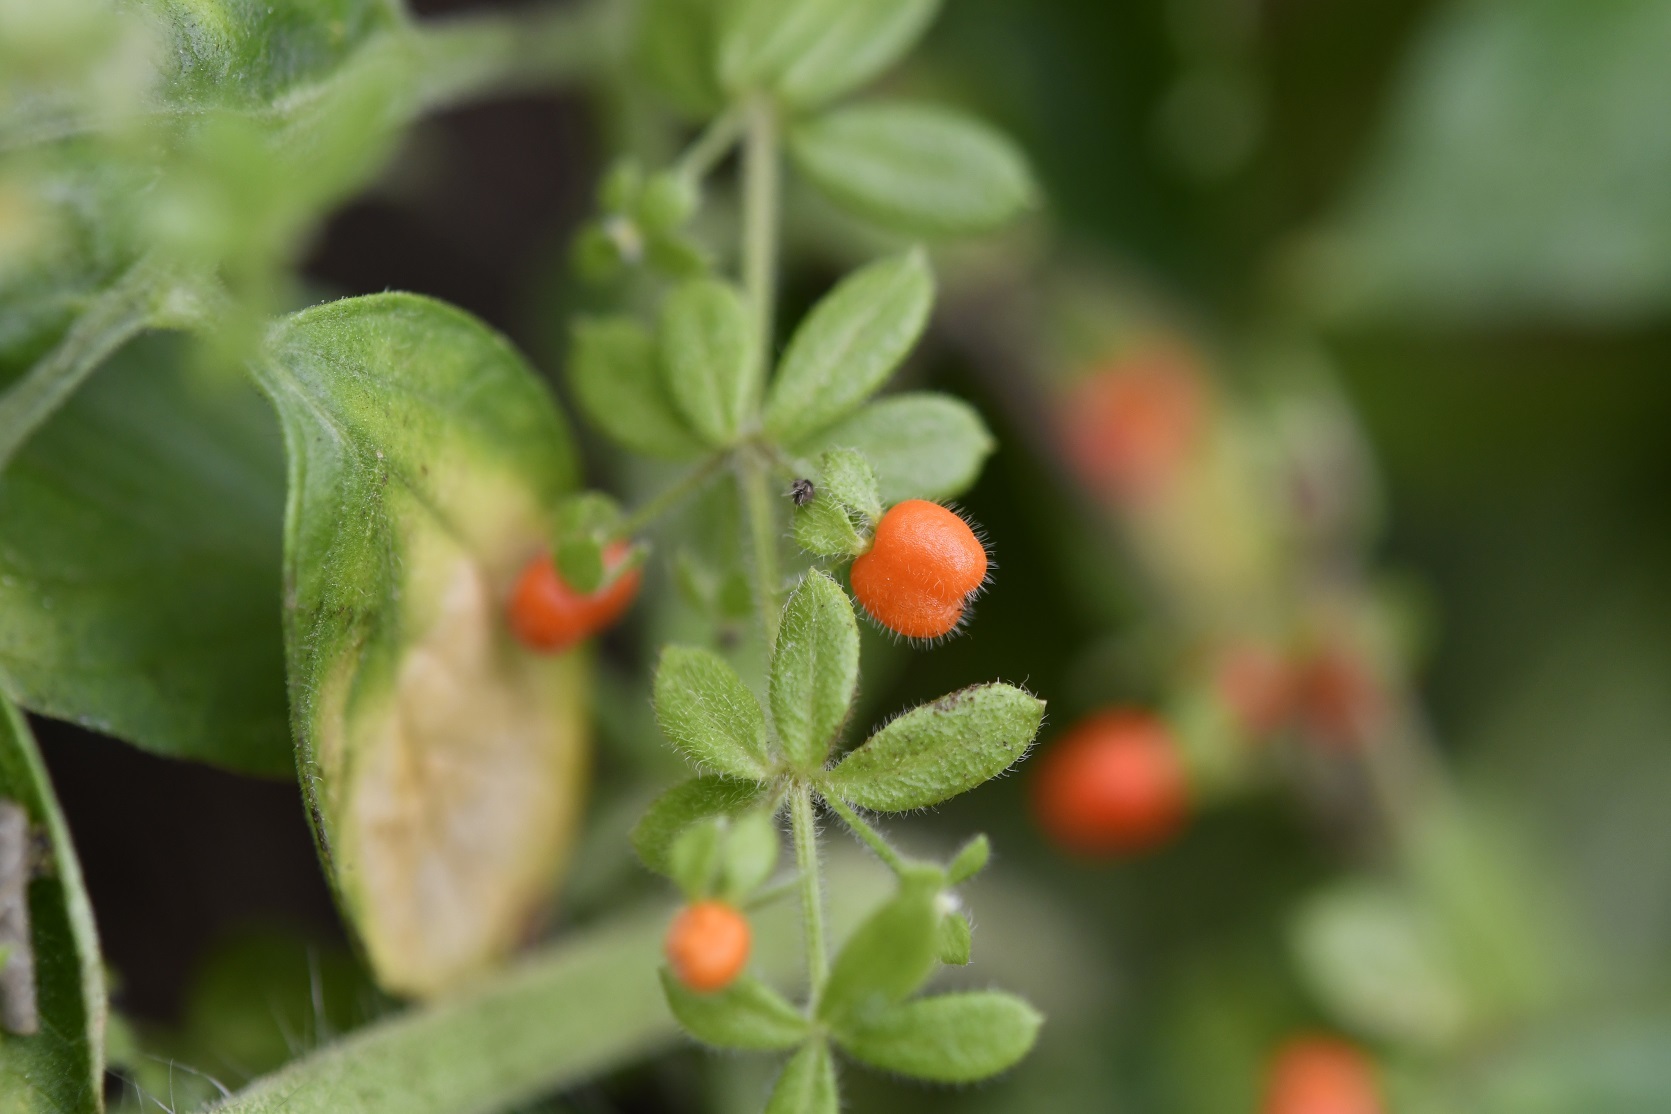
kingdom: Plantae
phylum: Tracheophyta
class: Magnoliopsida
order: Gentianales
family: Rubiaceae
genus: Galium
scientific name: Galium hypocarpium
